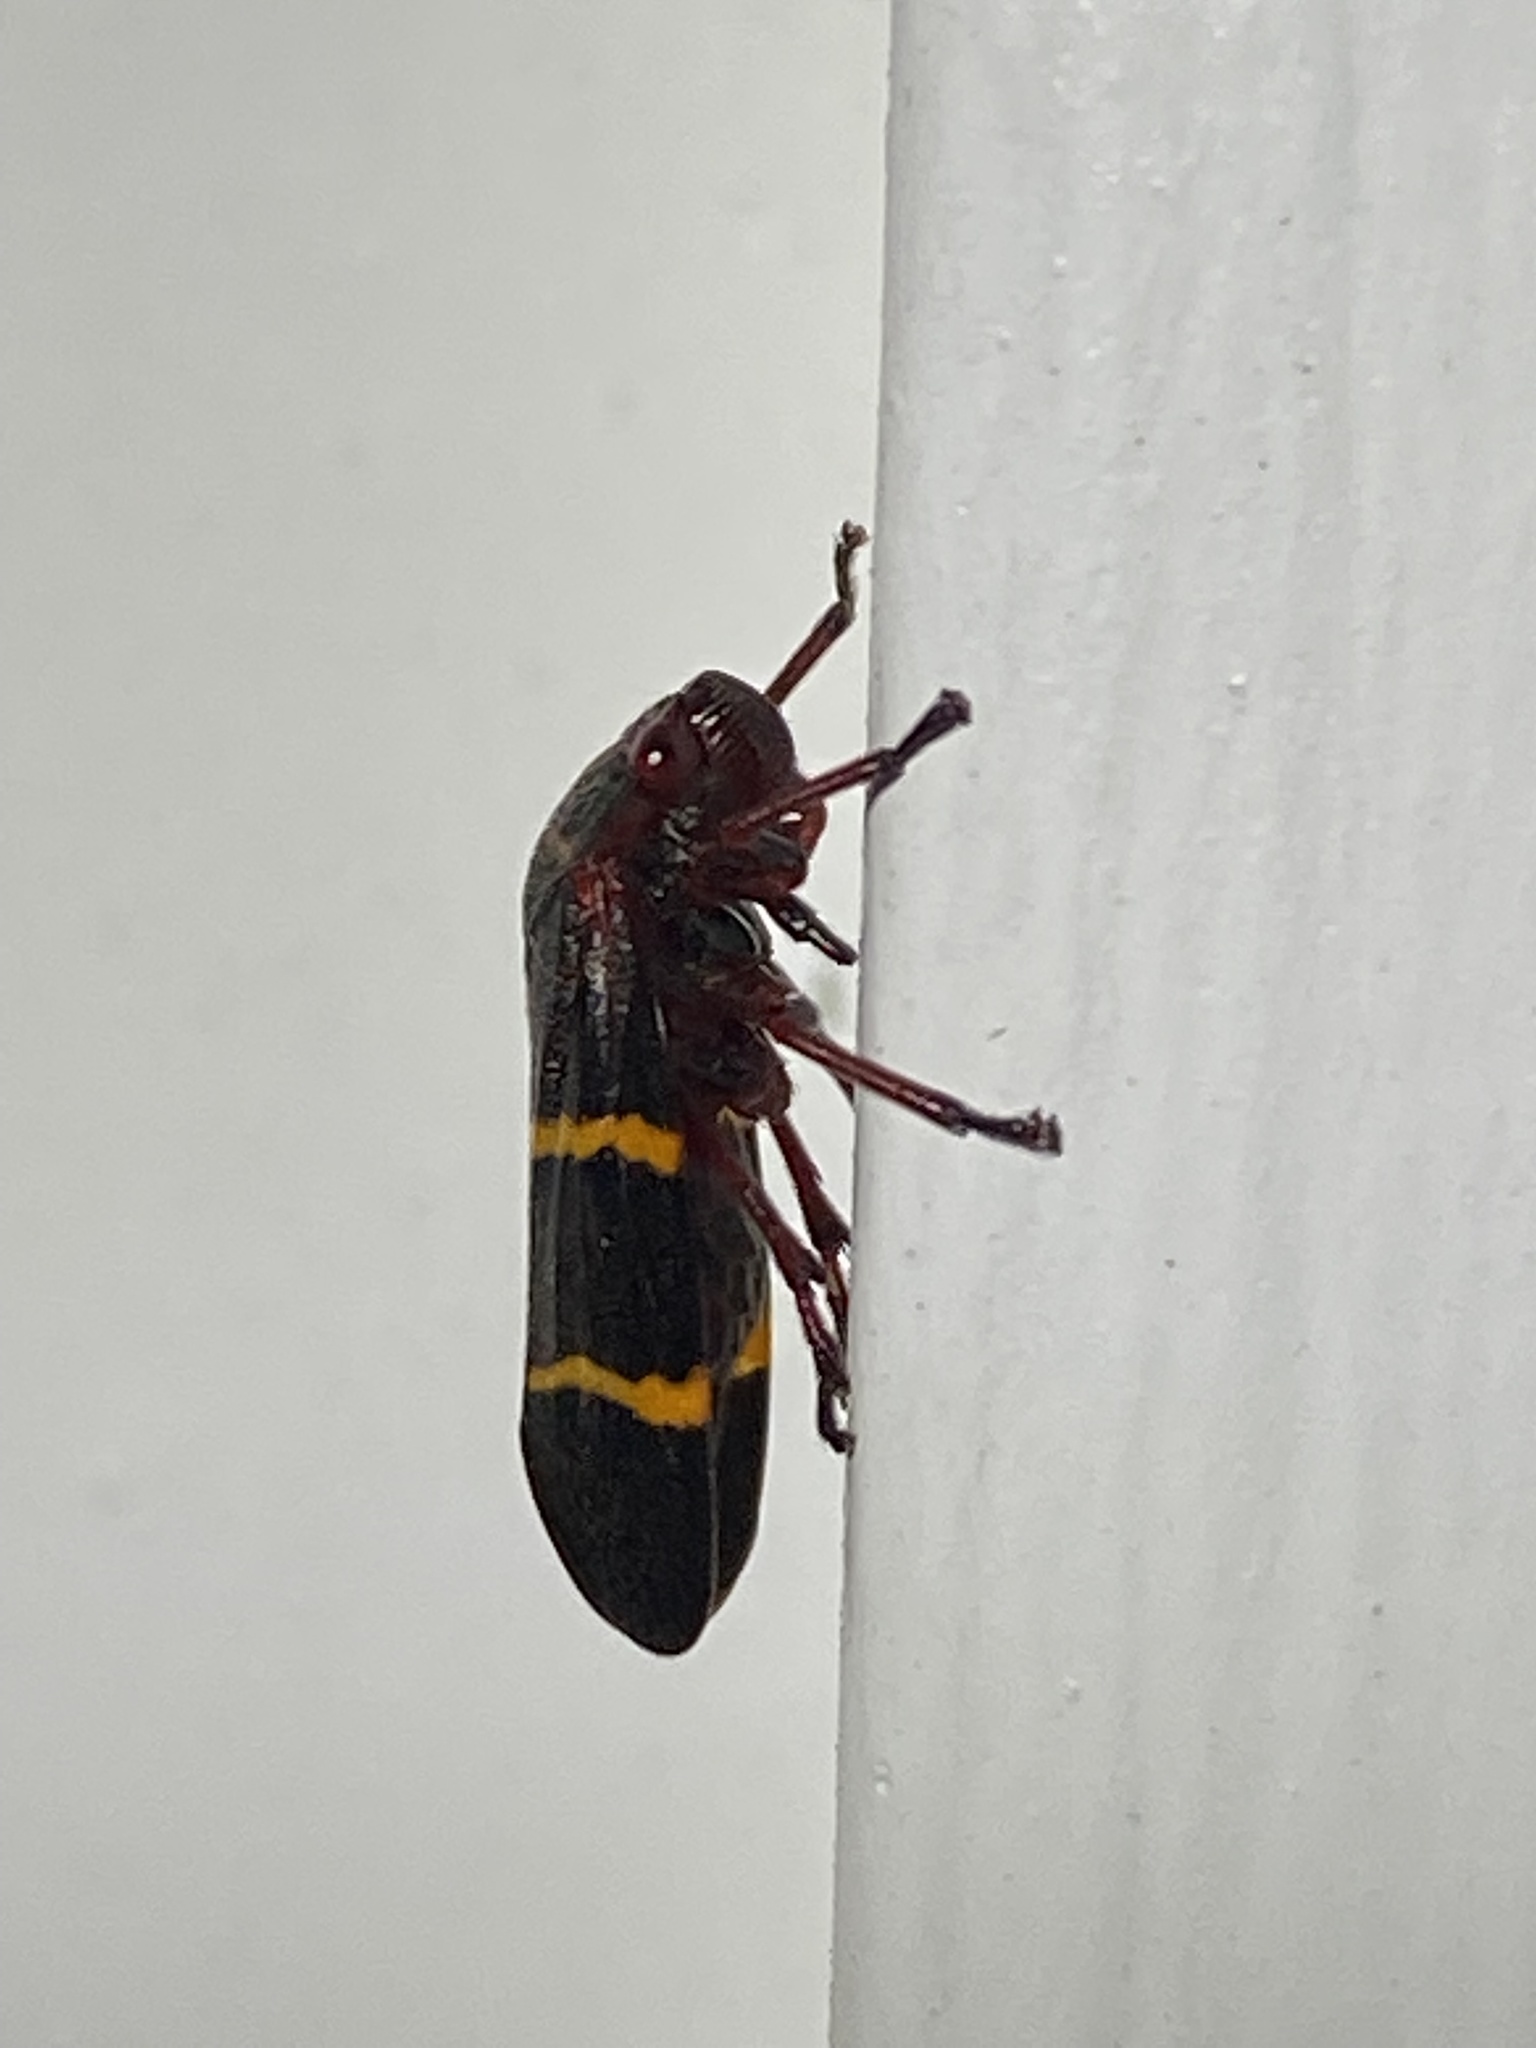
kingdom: Animalia
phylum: Arthropoda
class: Insecta
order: Hemiptera
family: Cercopidae
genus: Prosapia
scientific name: Prosapia bicincta
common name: Twolined spittlebug
